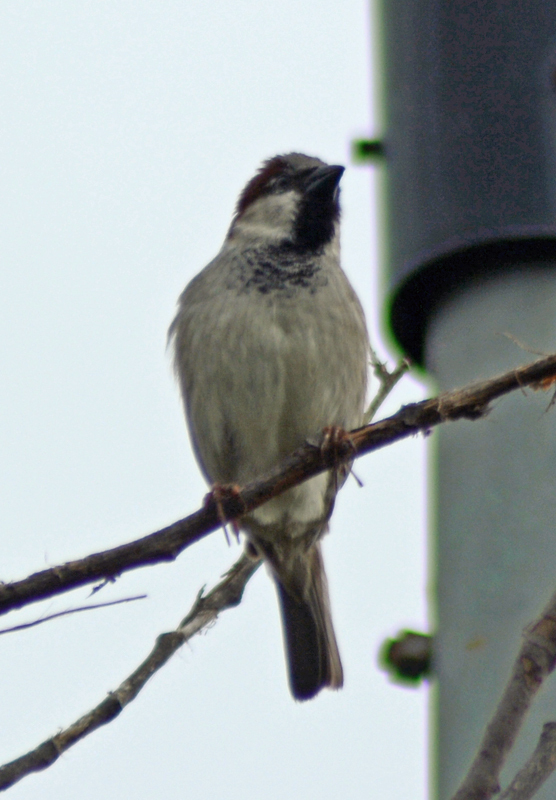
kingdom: Animalia
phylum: Chordata
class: Aves
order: Passeriformes
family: Passeridae
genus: Passer
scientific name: Passer domesticus
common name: House sparrow
